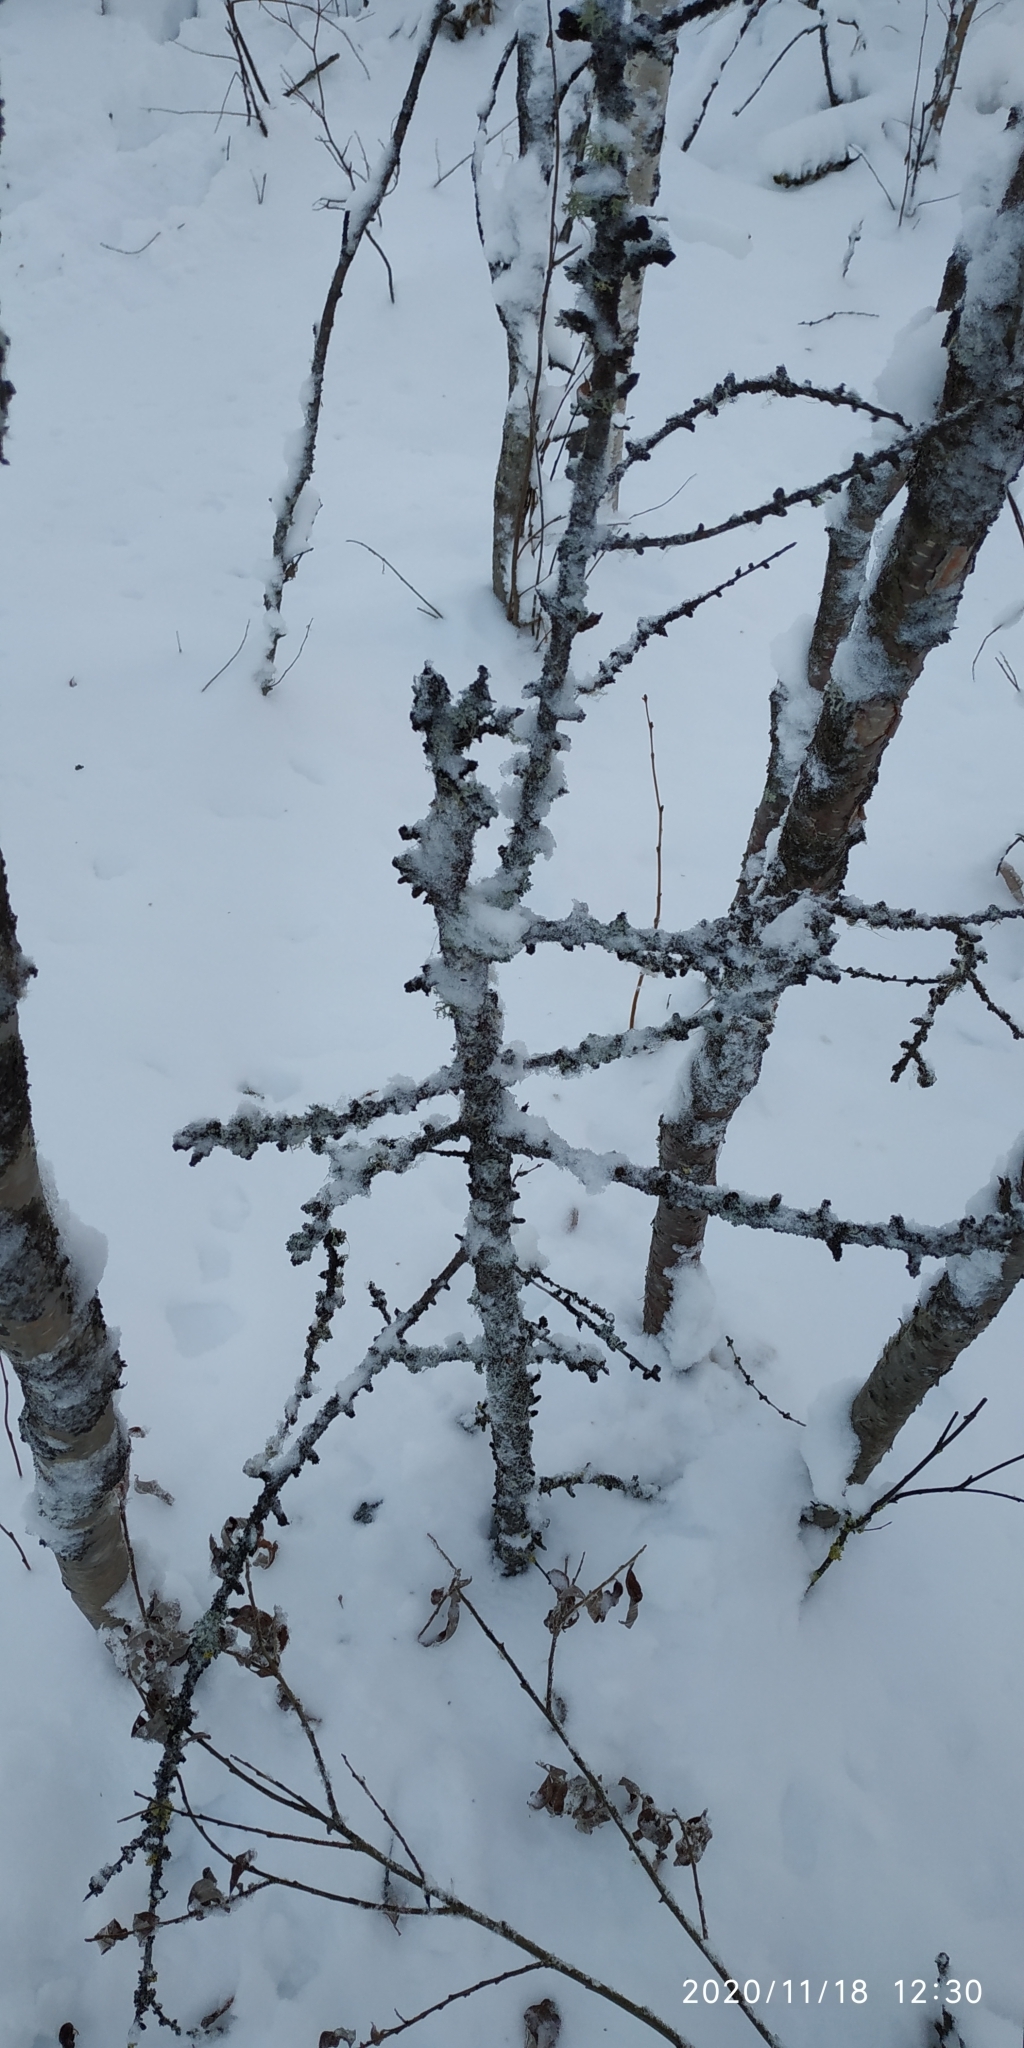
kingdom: Plantae
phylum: Tracheophyta
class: Pinopsida
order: Pinales
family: Pinaceae
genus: Larix
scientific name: Larix sibirica
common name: Siberian larch
